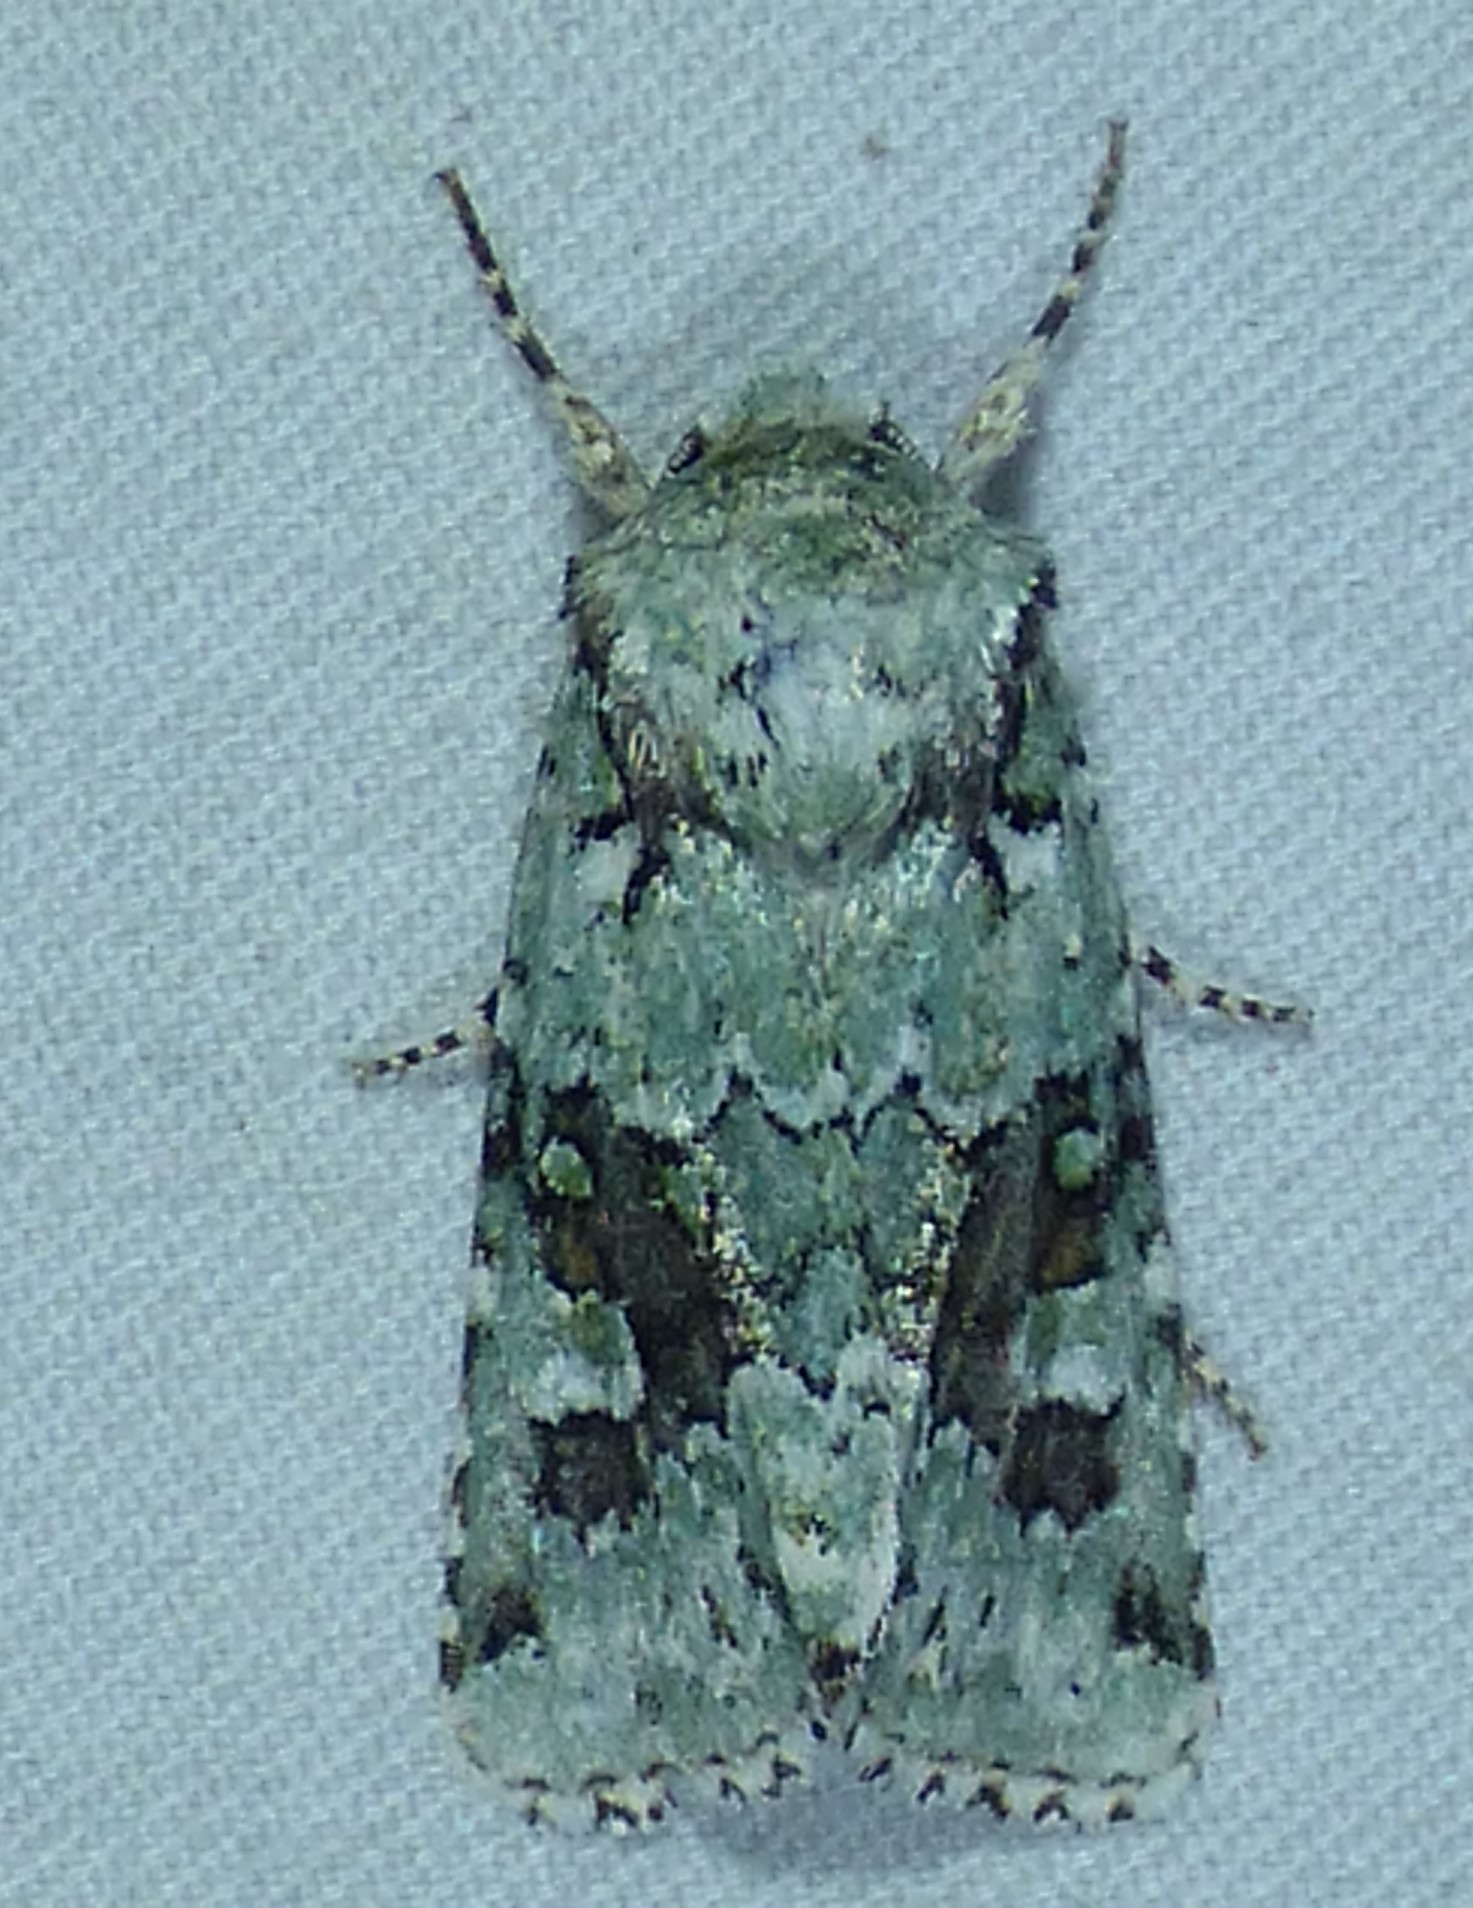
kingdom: Animalia
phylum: Arthropoda
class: Insecta
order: Lepidoptera
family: Noctuidae
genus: Lacinipolia
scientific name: Lacinipolia laudabilis
